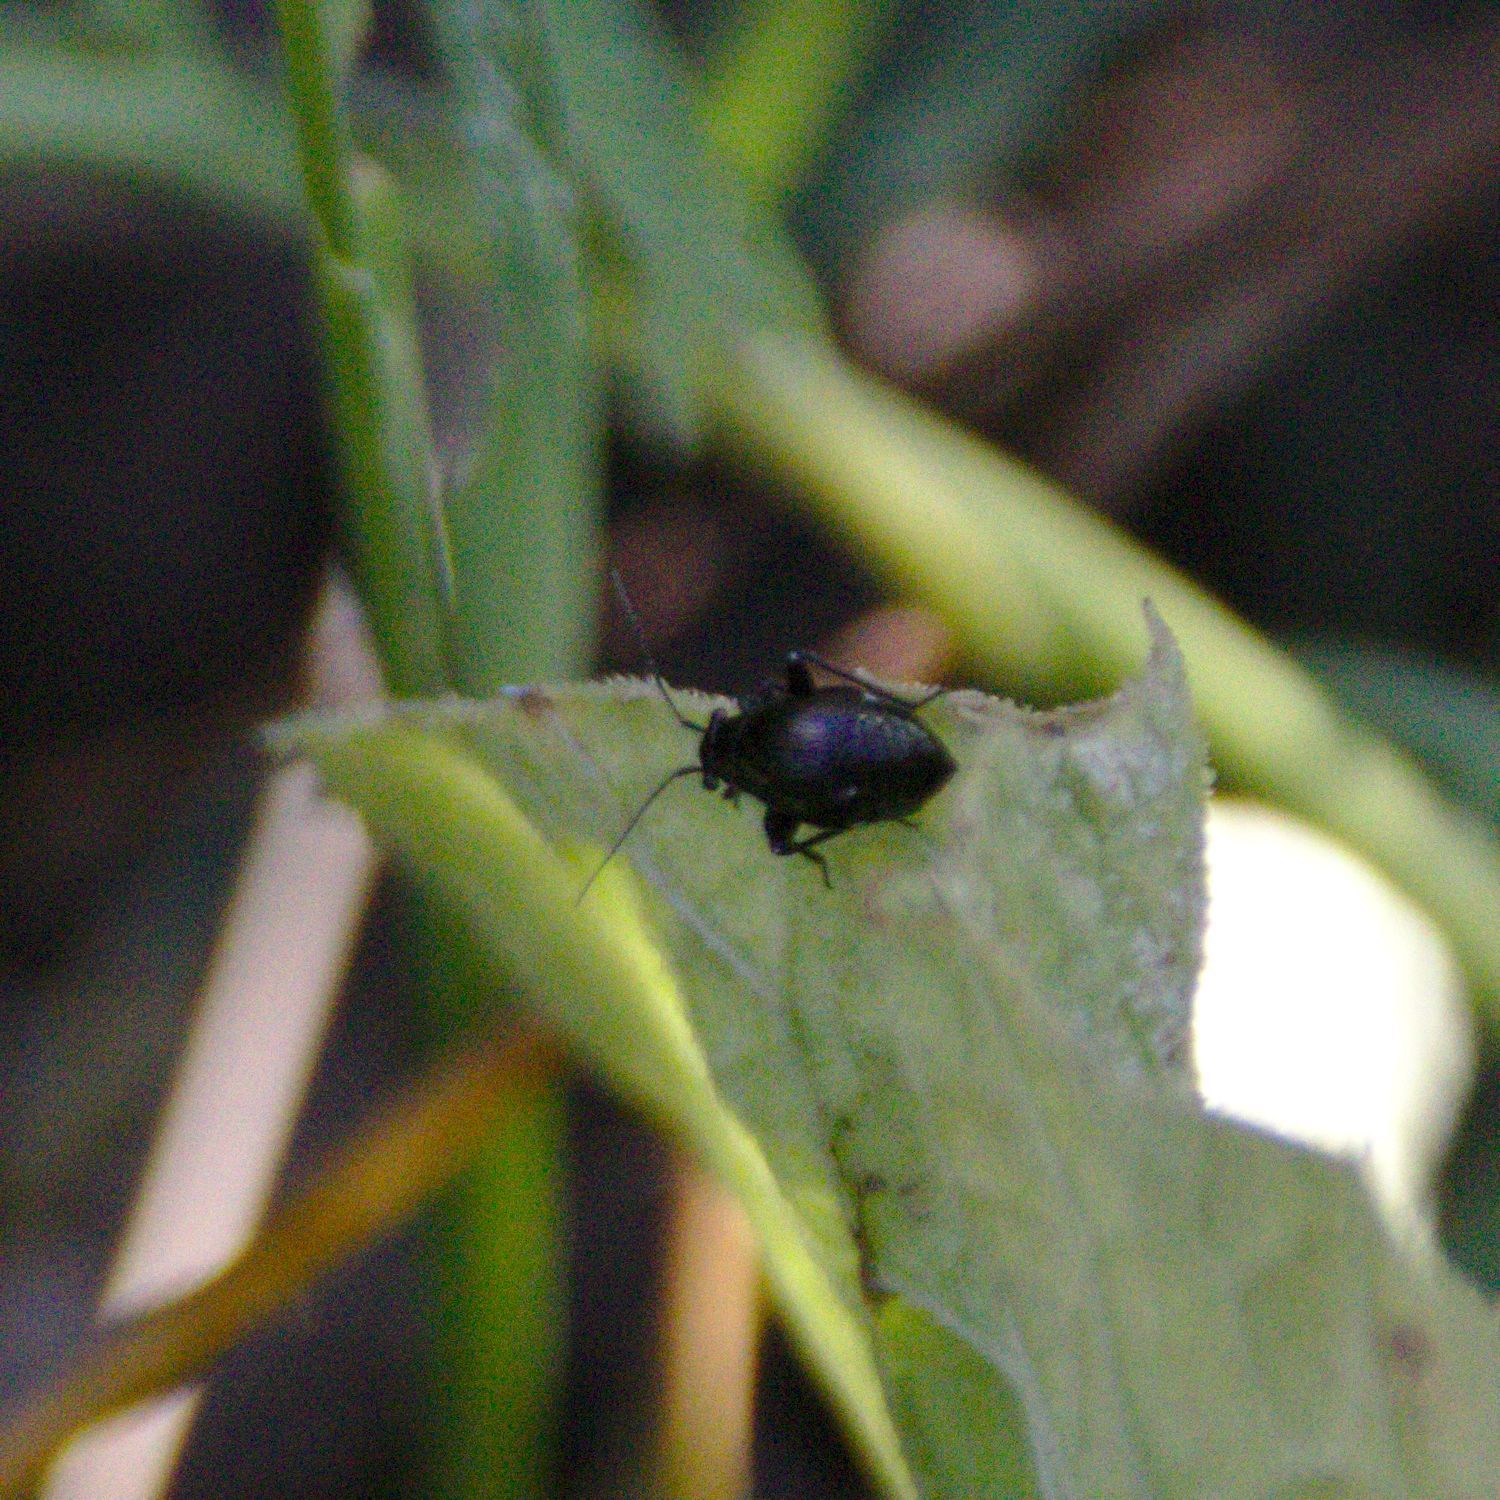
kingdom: Animalia
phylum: Arthropoda
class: Insecta
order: Hemiptera
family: Miridae
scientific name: Miridae
